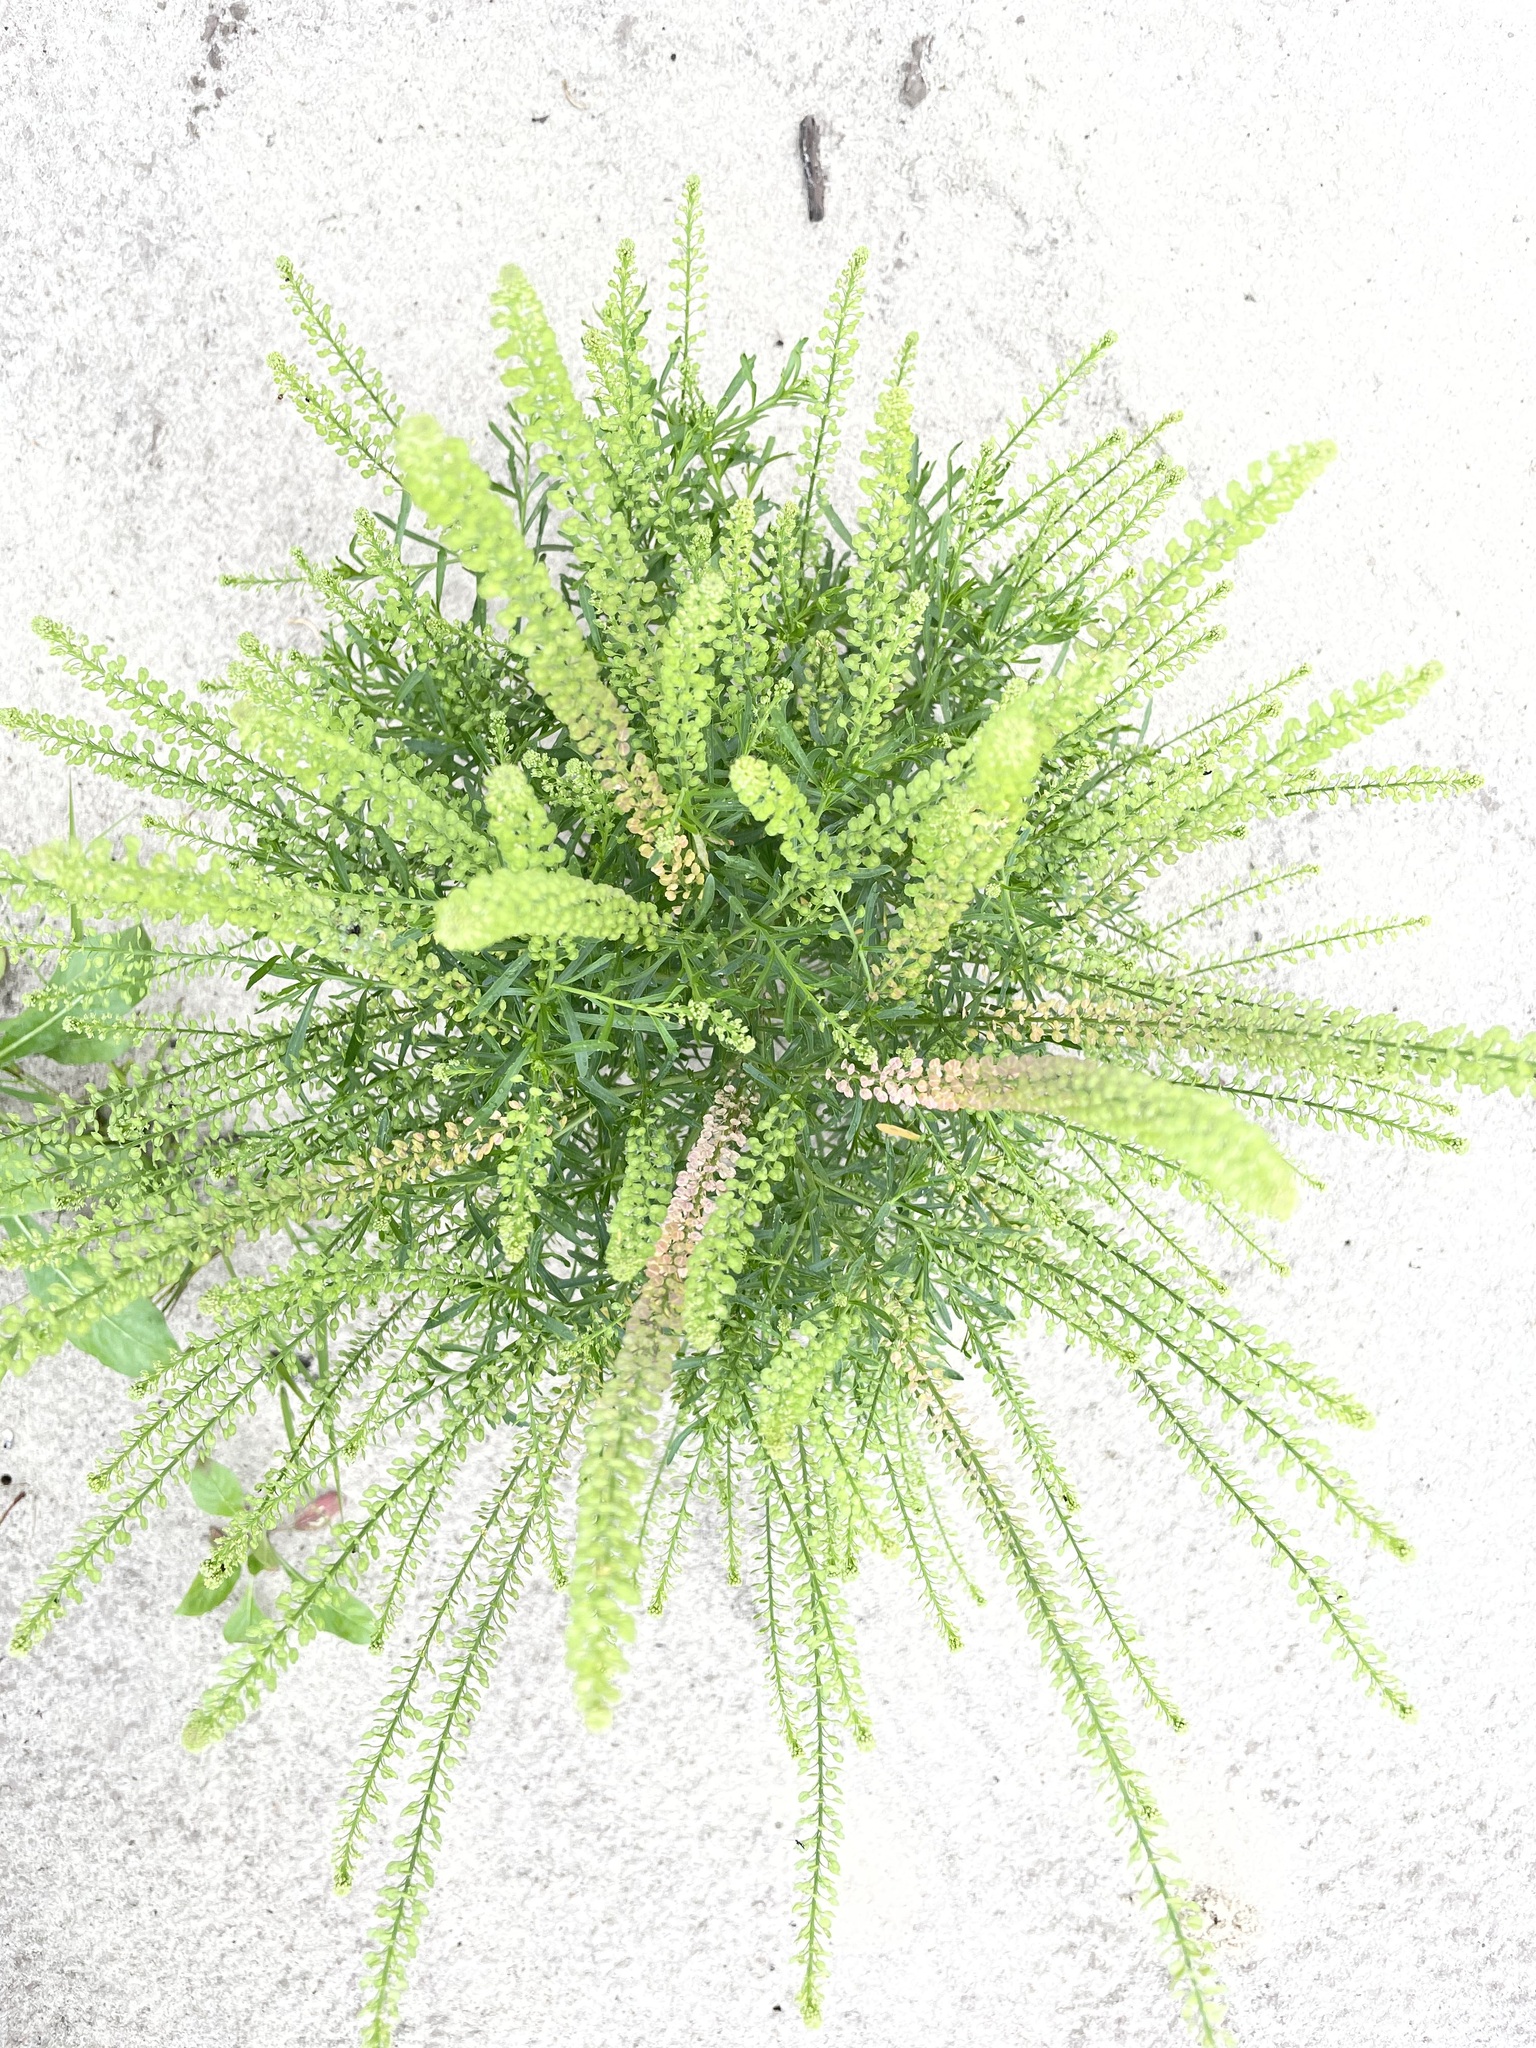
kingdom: Plantae
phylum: Tracheophyta
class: Magnoliopsida
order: Brassicales
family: Brassicaceae
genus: Lepidium
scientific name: Lepidium densiflorum
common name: Miner's pepperwort
